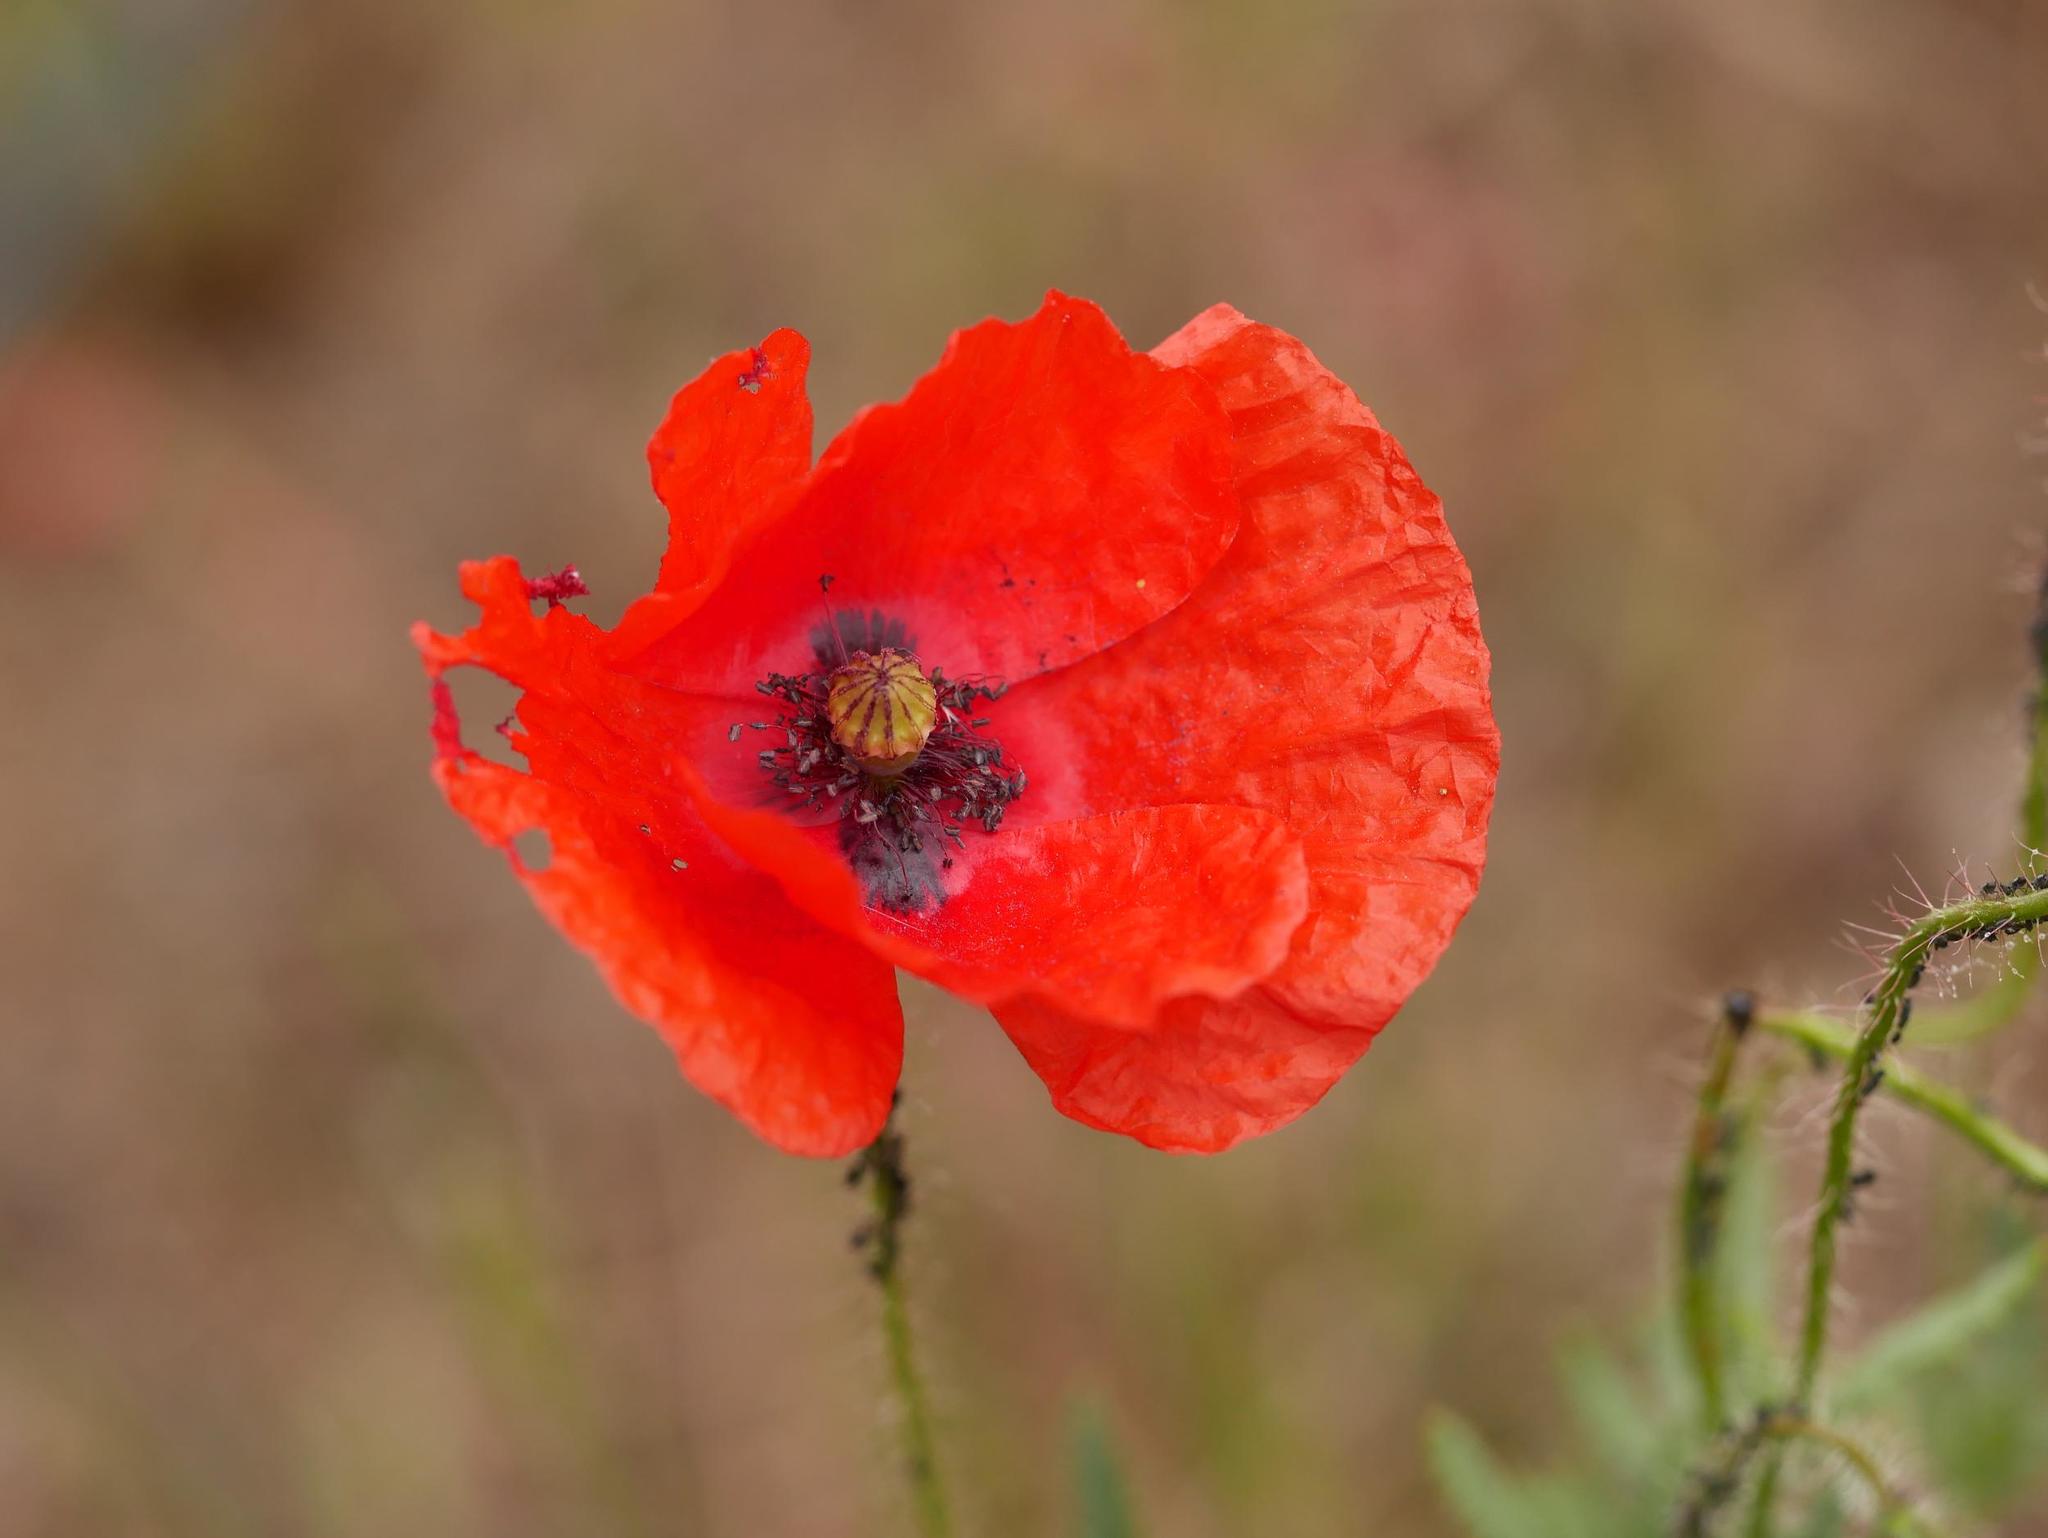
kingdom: Plantae
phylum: Tracheophyta
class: Magnoliopsida
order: Ranunculales
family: Papaveraceae
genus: Papaver
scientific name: Papaver rhoeas
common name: Corn poppy
